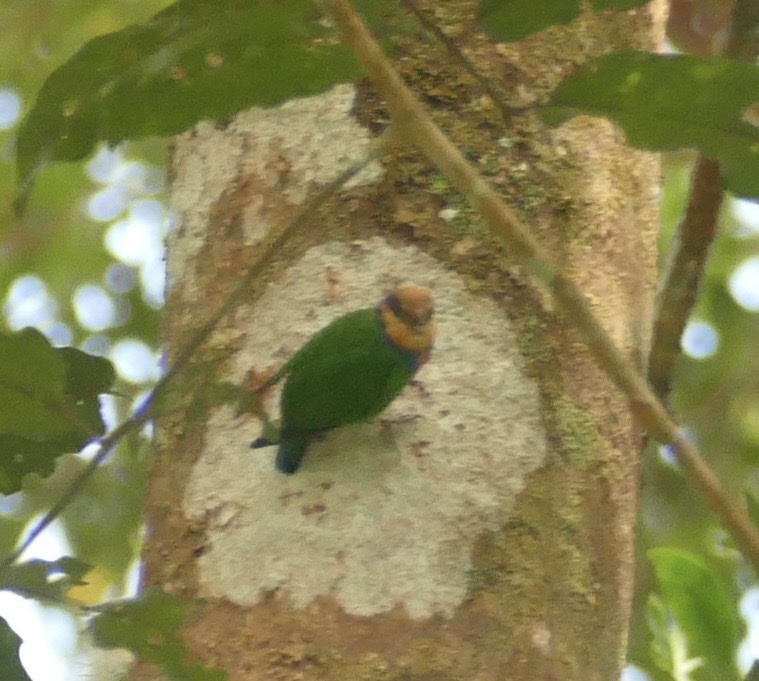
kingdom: Animalia
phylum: Chordata
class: Aves
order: Psittaciformes
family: Psittacidae
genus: Micropsitta
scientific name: Micropsitta bruijnii
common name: Red-breasted pygmy-parrot
